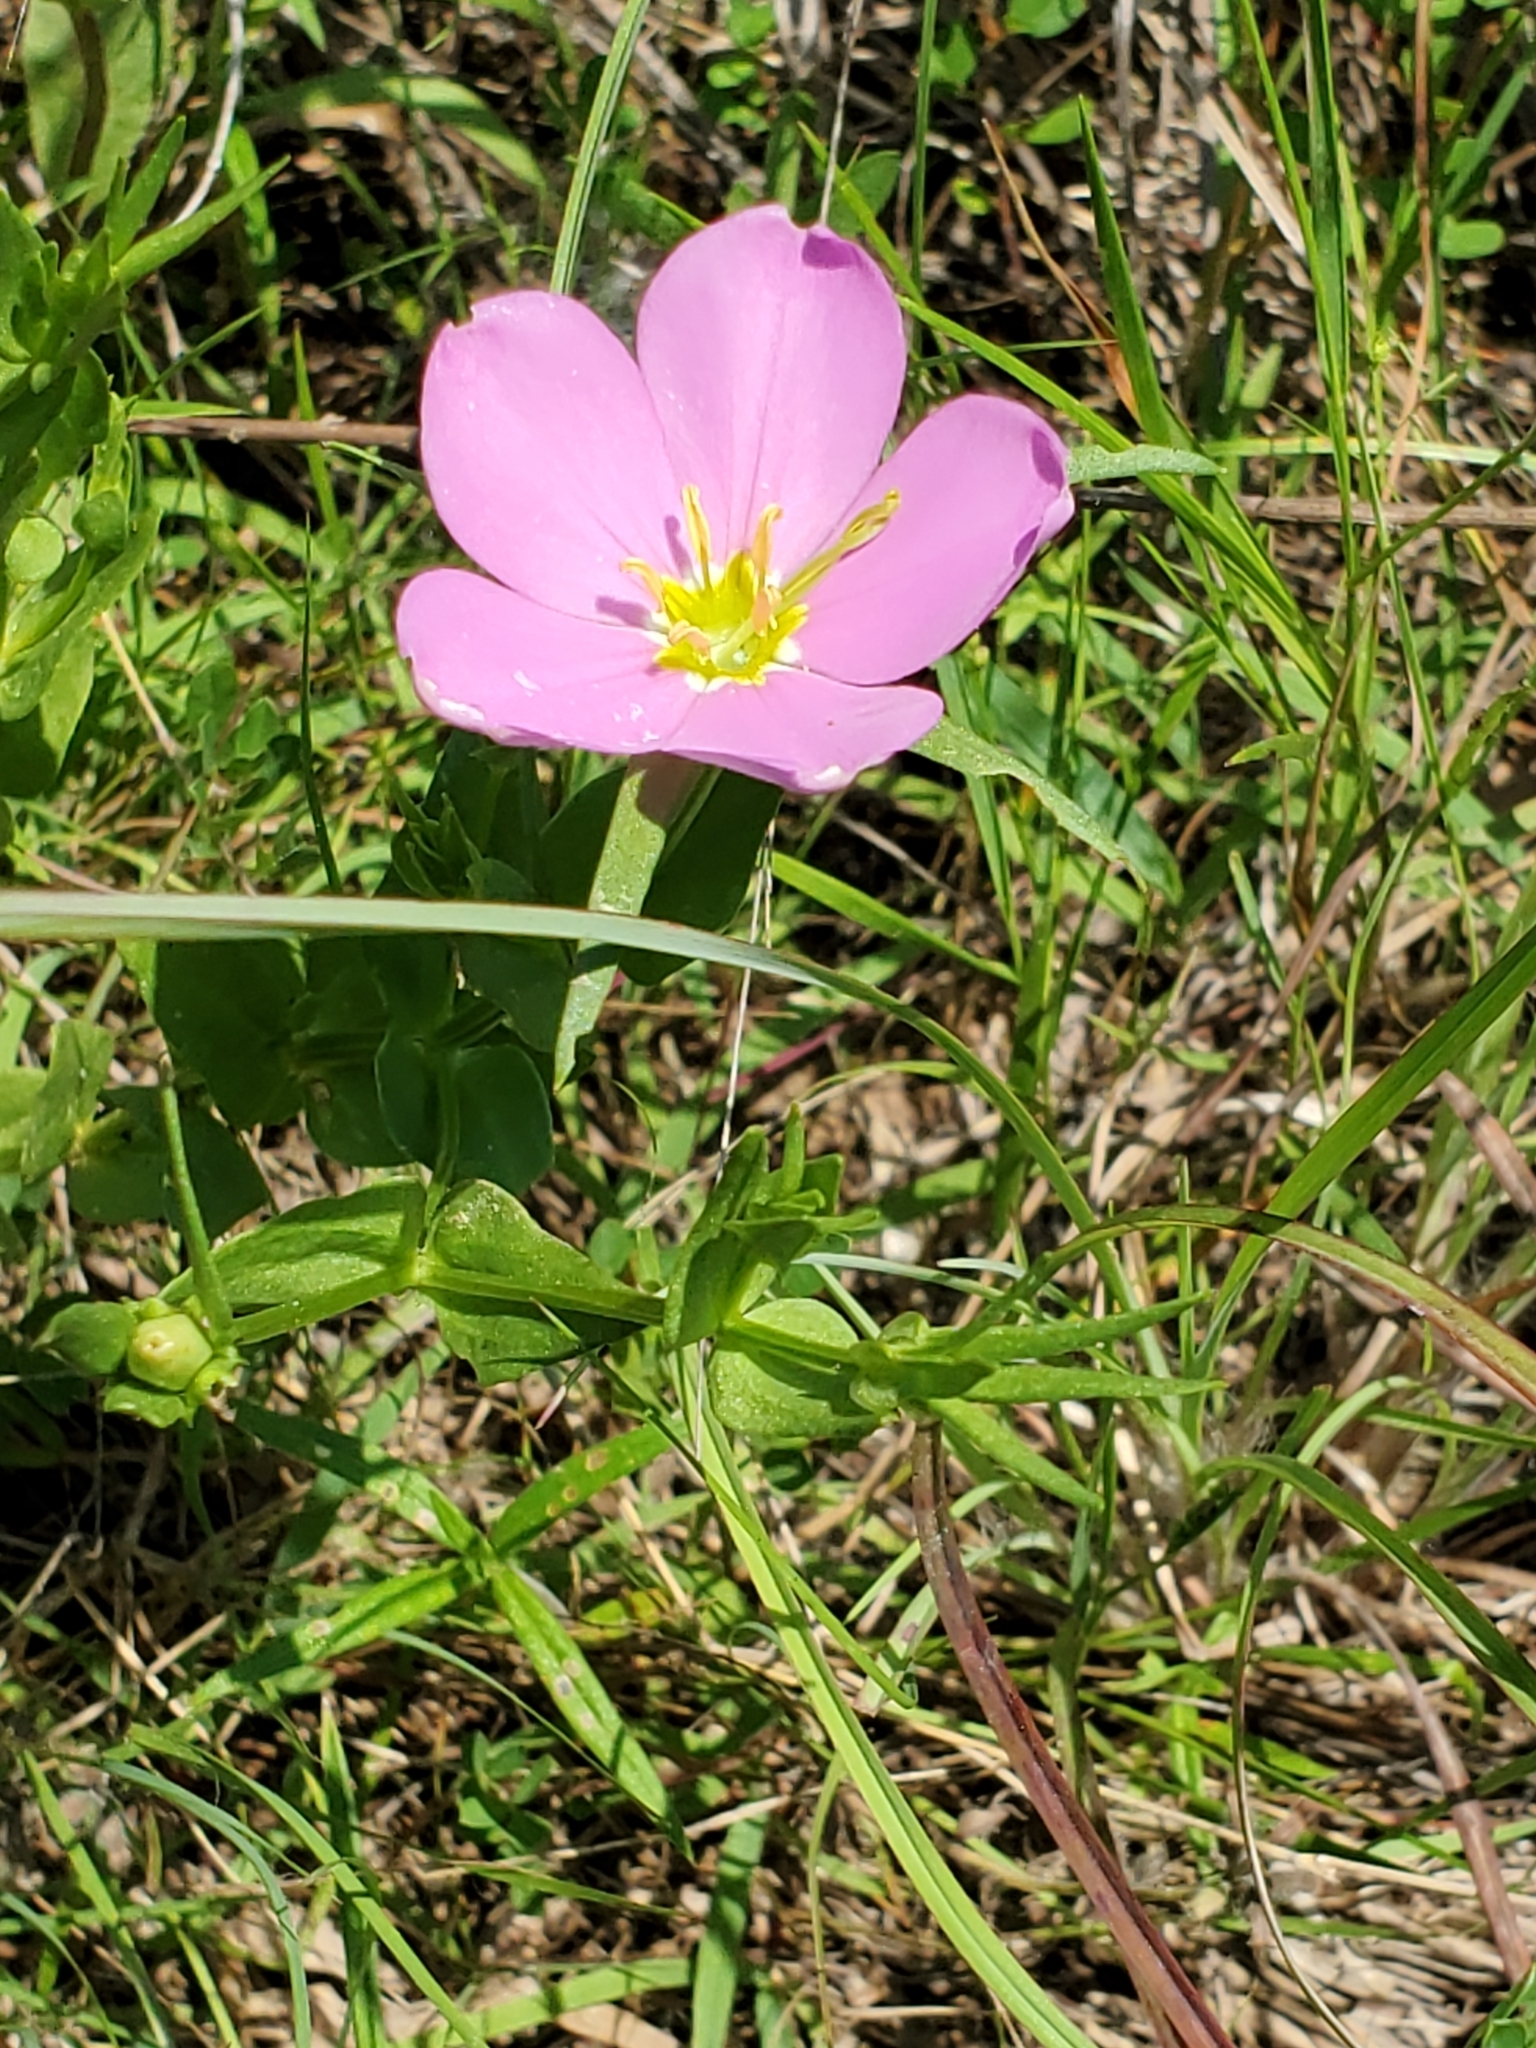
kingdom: Plantae
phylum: Tracheophyta
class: Magnoliopsida
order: Gentianales
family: Gentianaceae
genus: Sabatia
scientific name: Sabatia campestris
